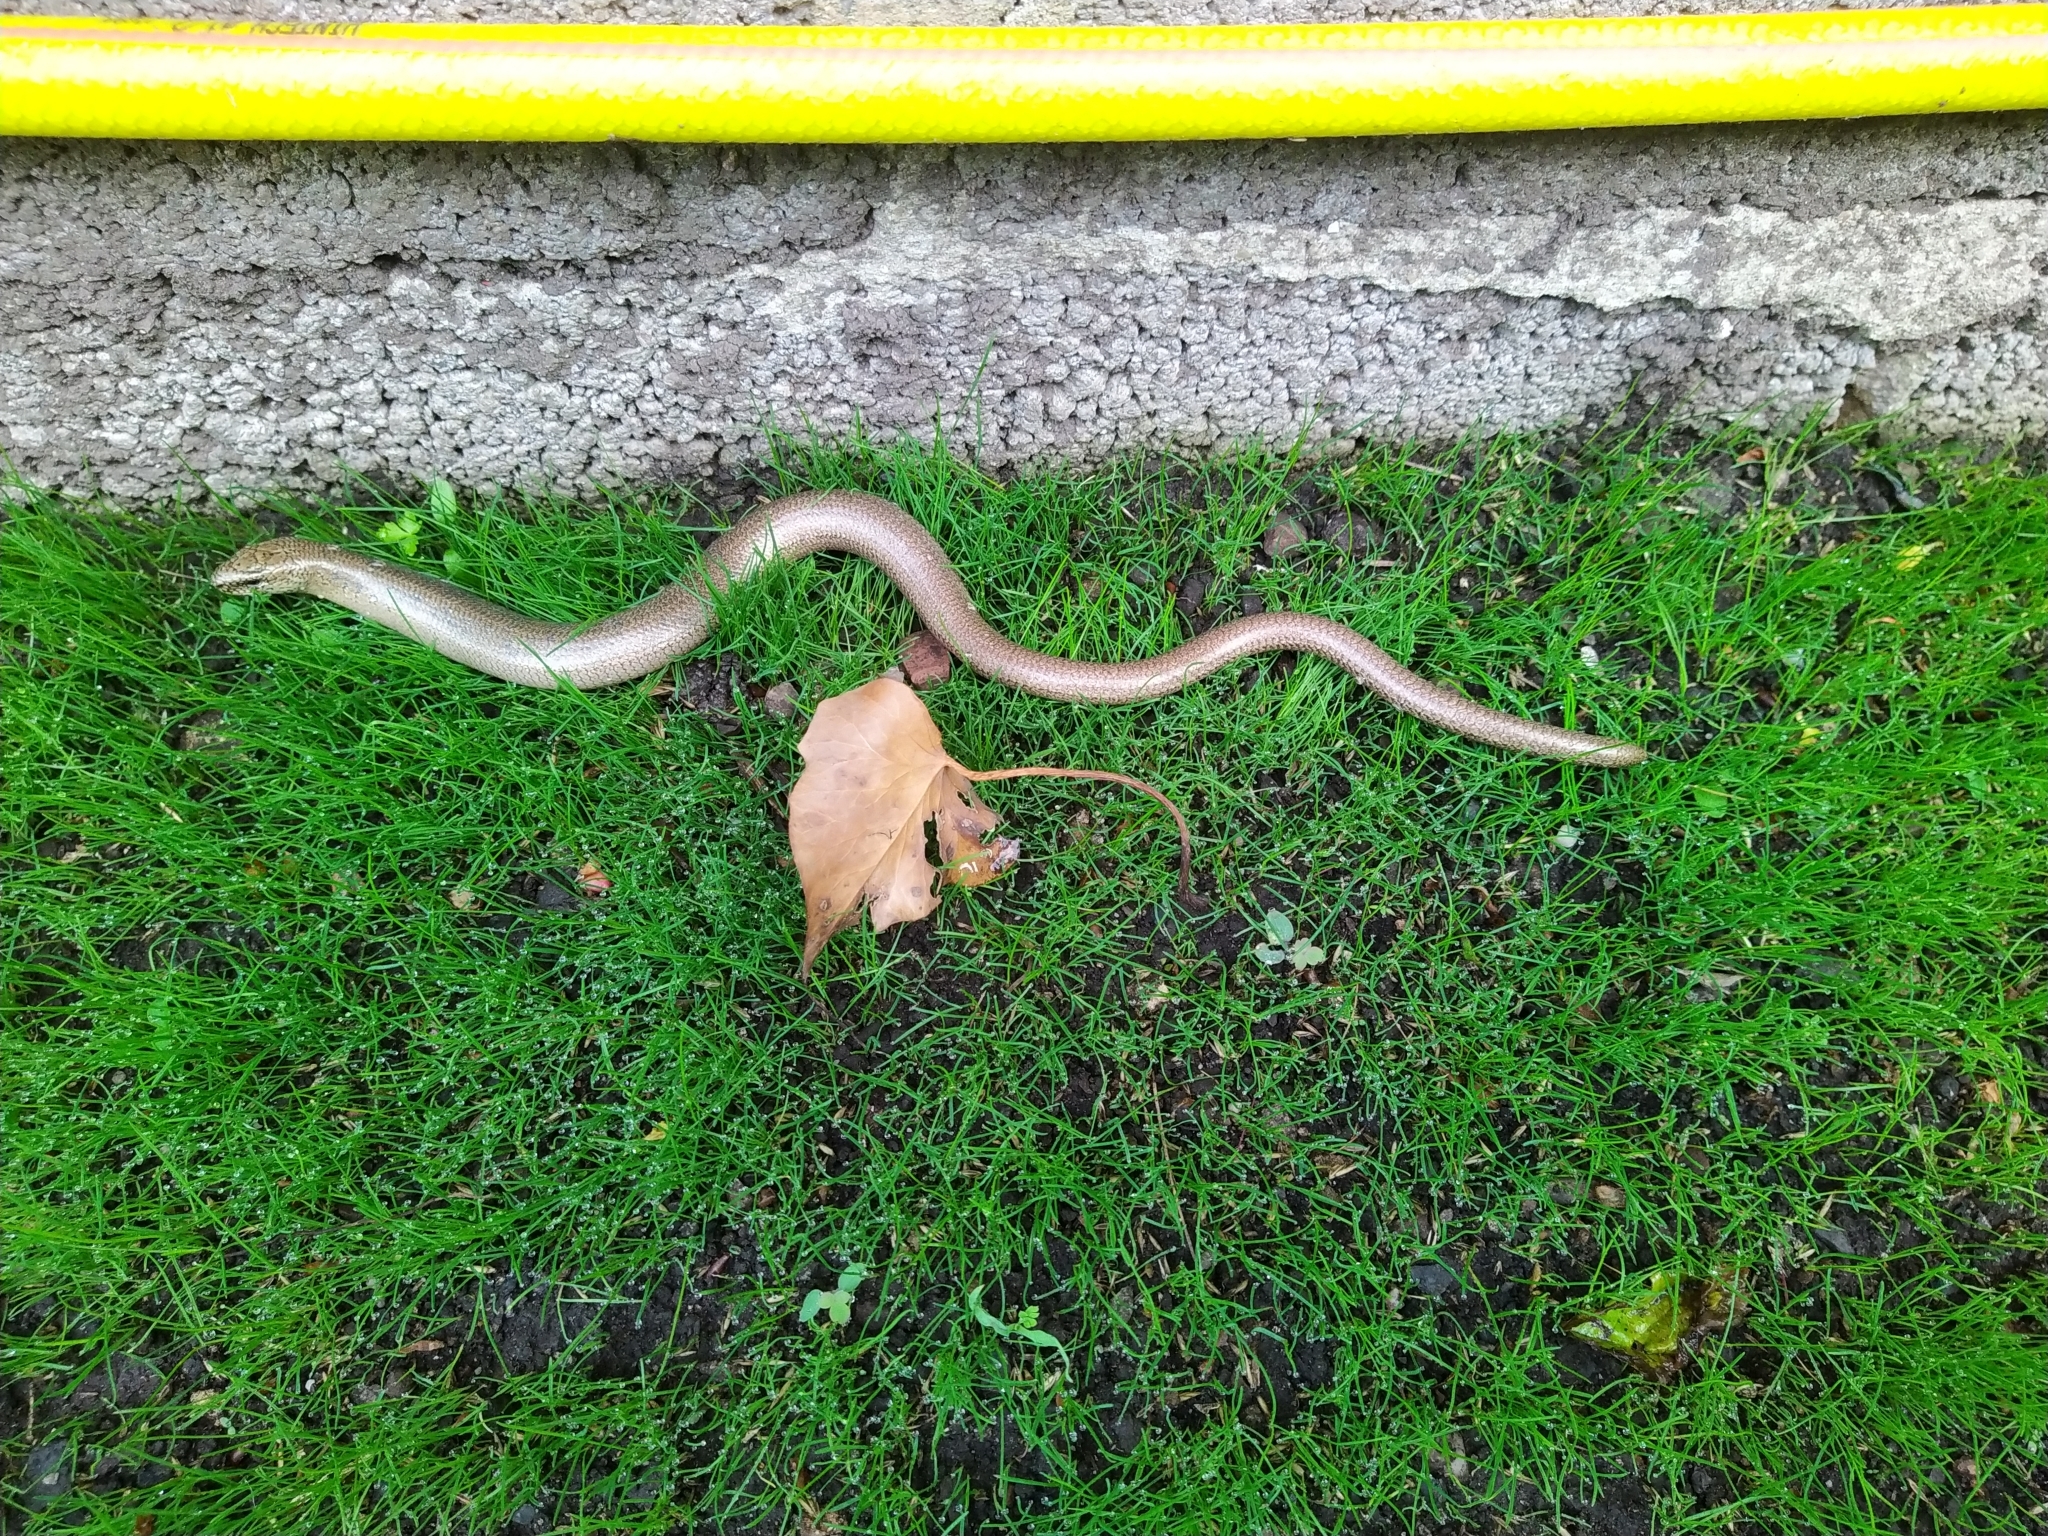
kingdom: Animalia
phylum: Chordata
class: Squamata
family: Anguidae
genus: Anguis
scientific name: Anguis fragilis
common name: Slow worm
